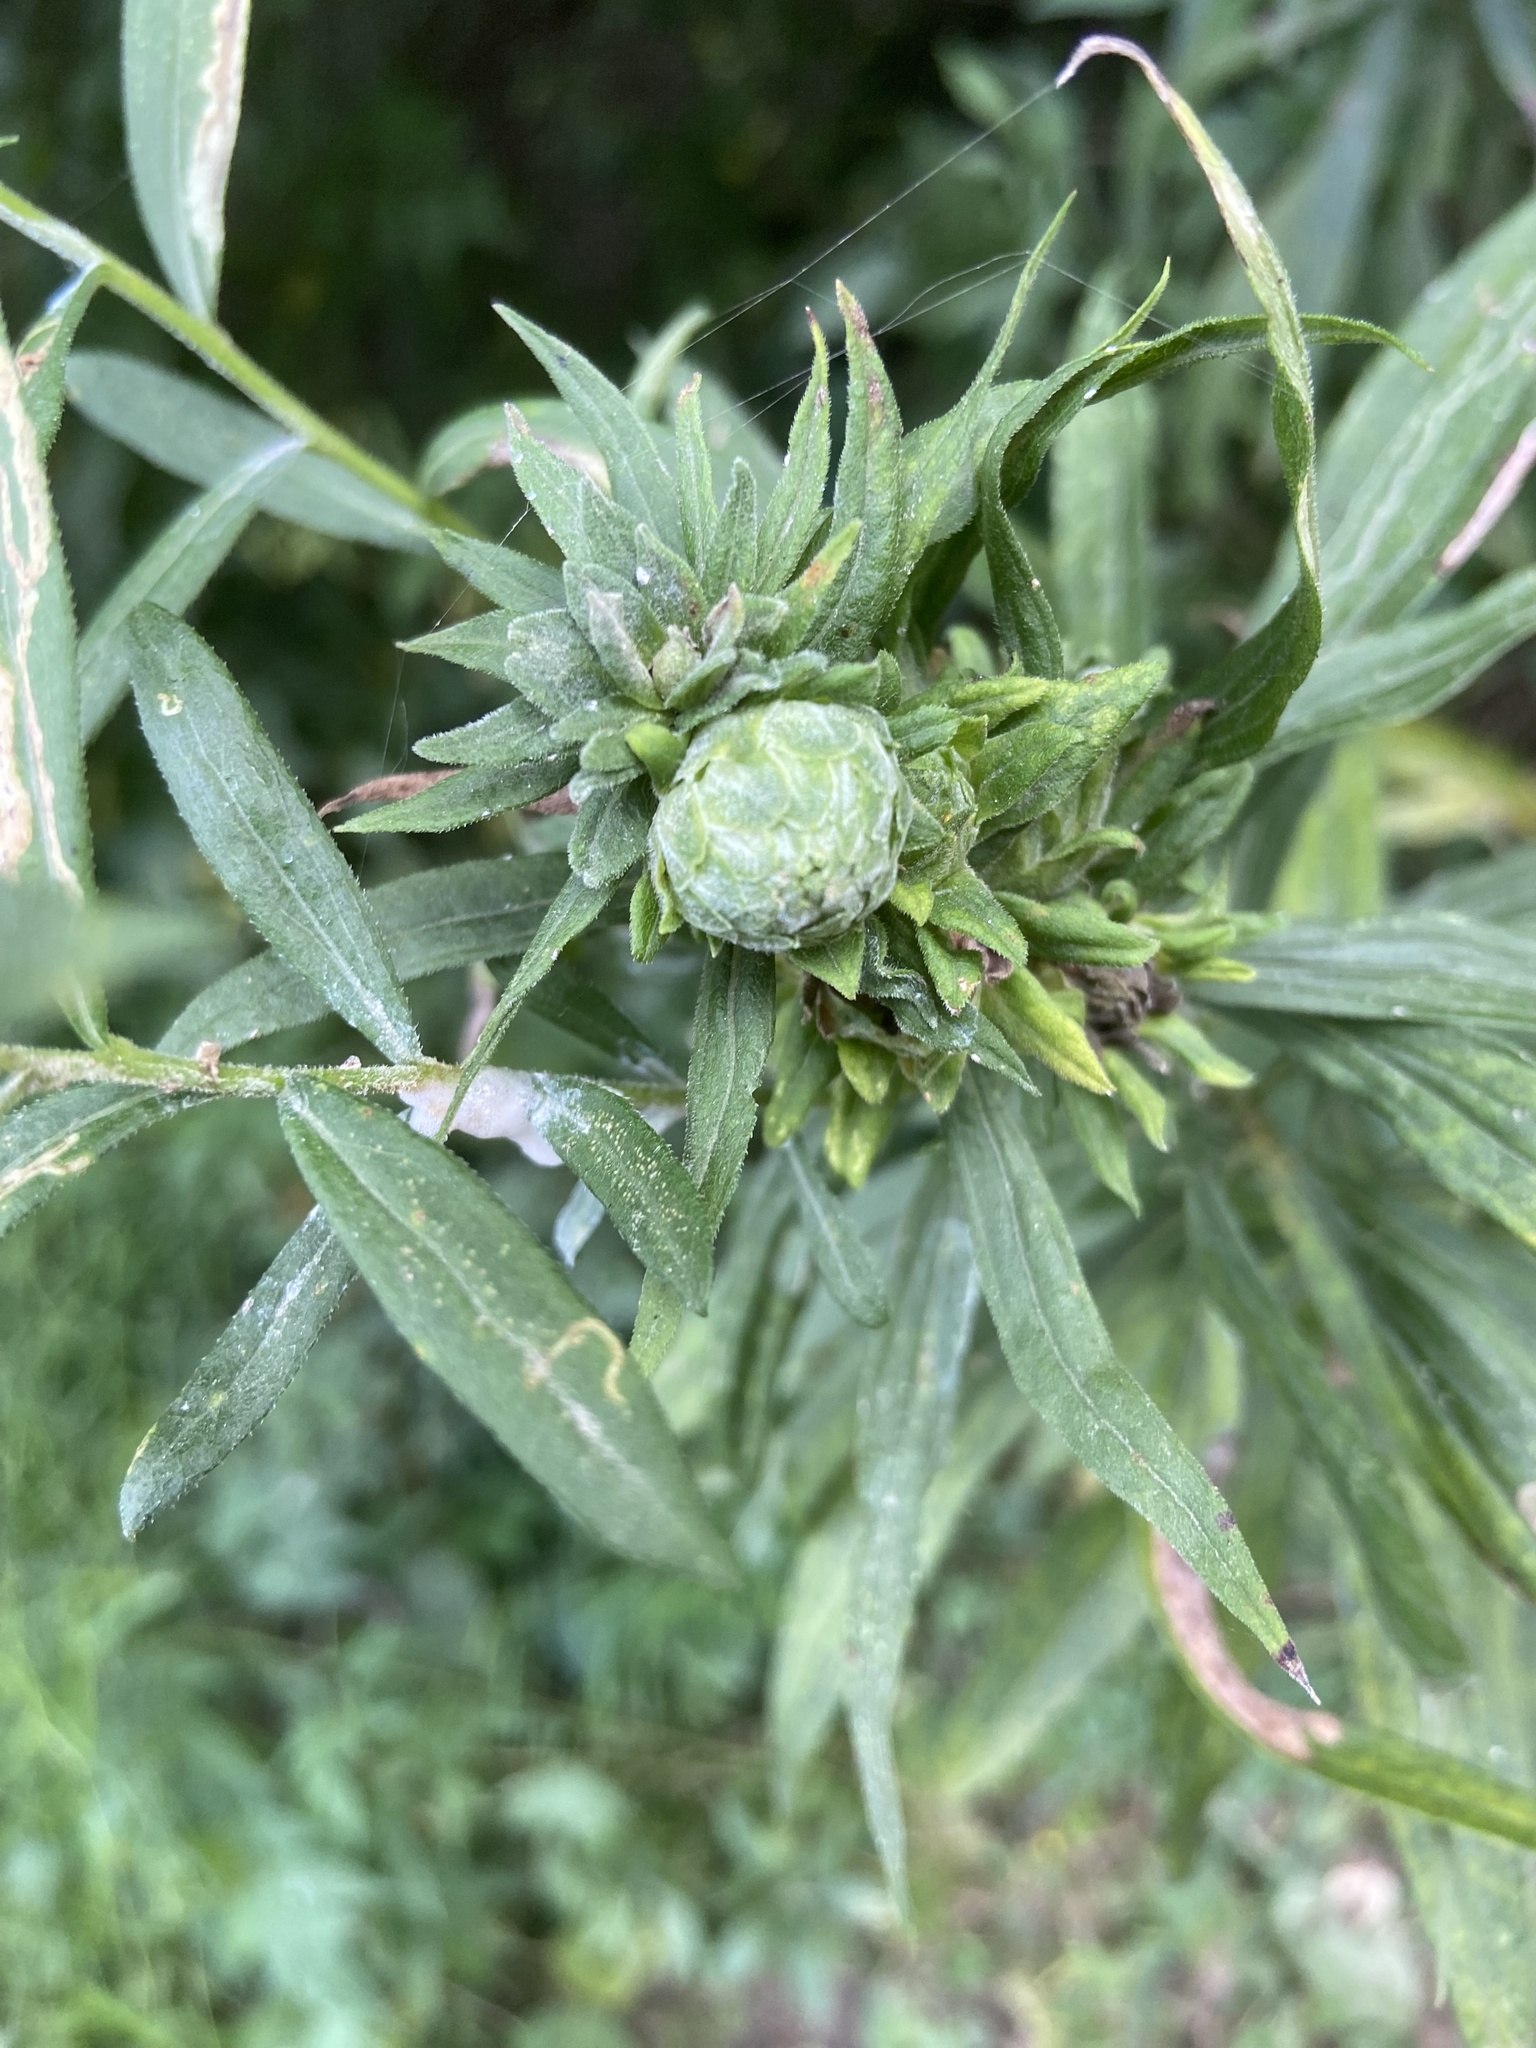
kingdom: Animalia
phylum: Arthropoda
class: Insecta
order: Diptera
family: Tephritidae
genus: Procecidochares
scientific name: Procecidochares atra
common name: Goldenrod brussels sprout gall fly
